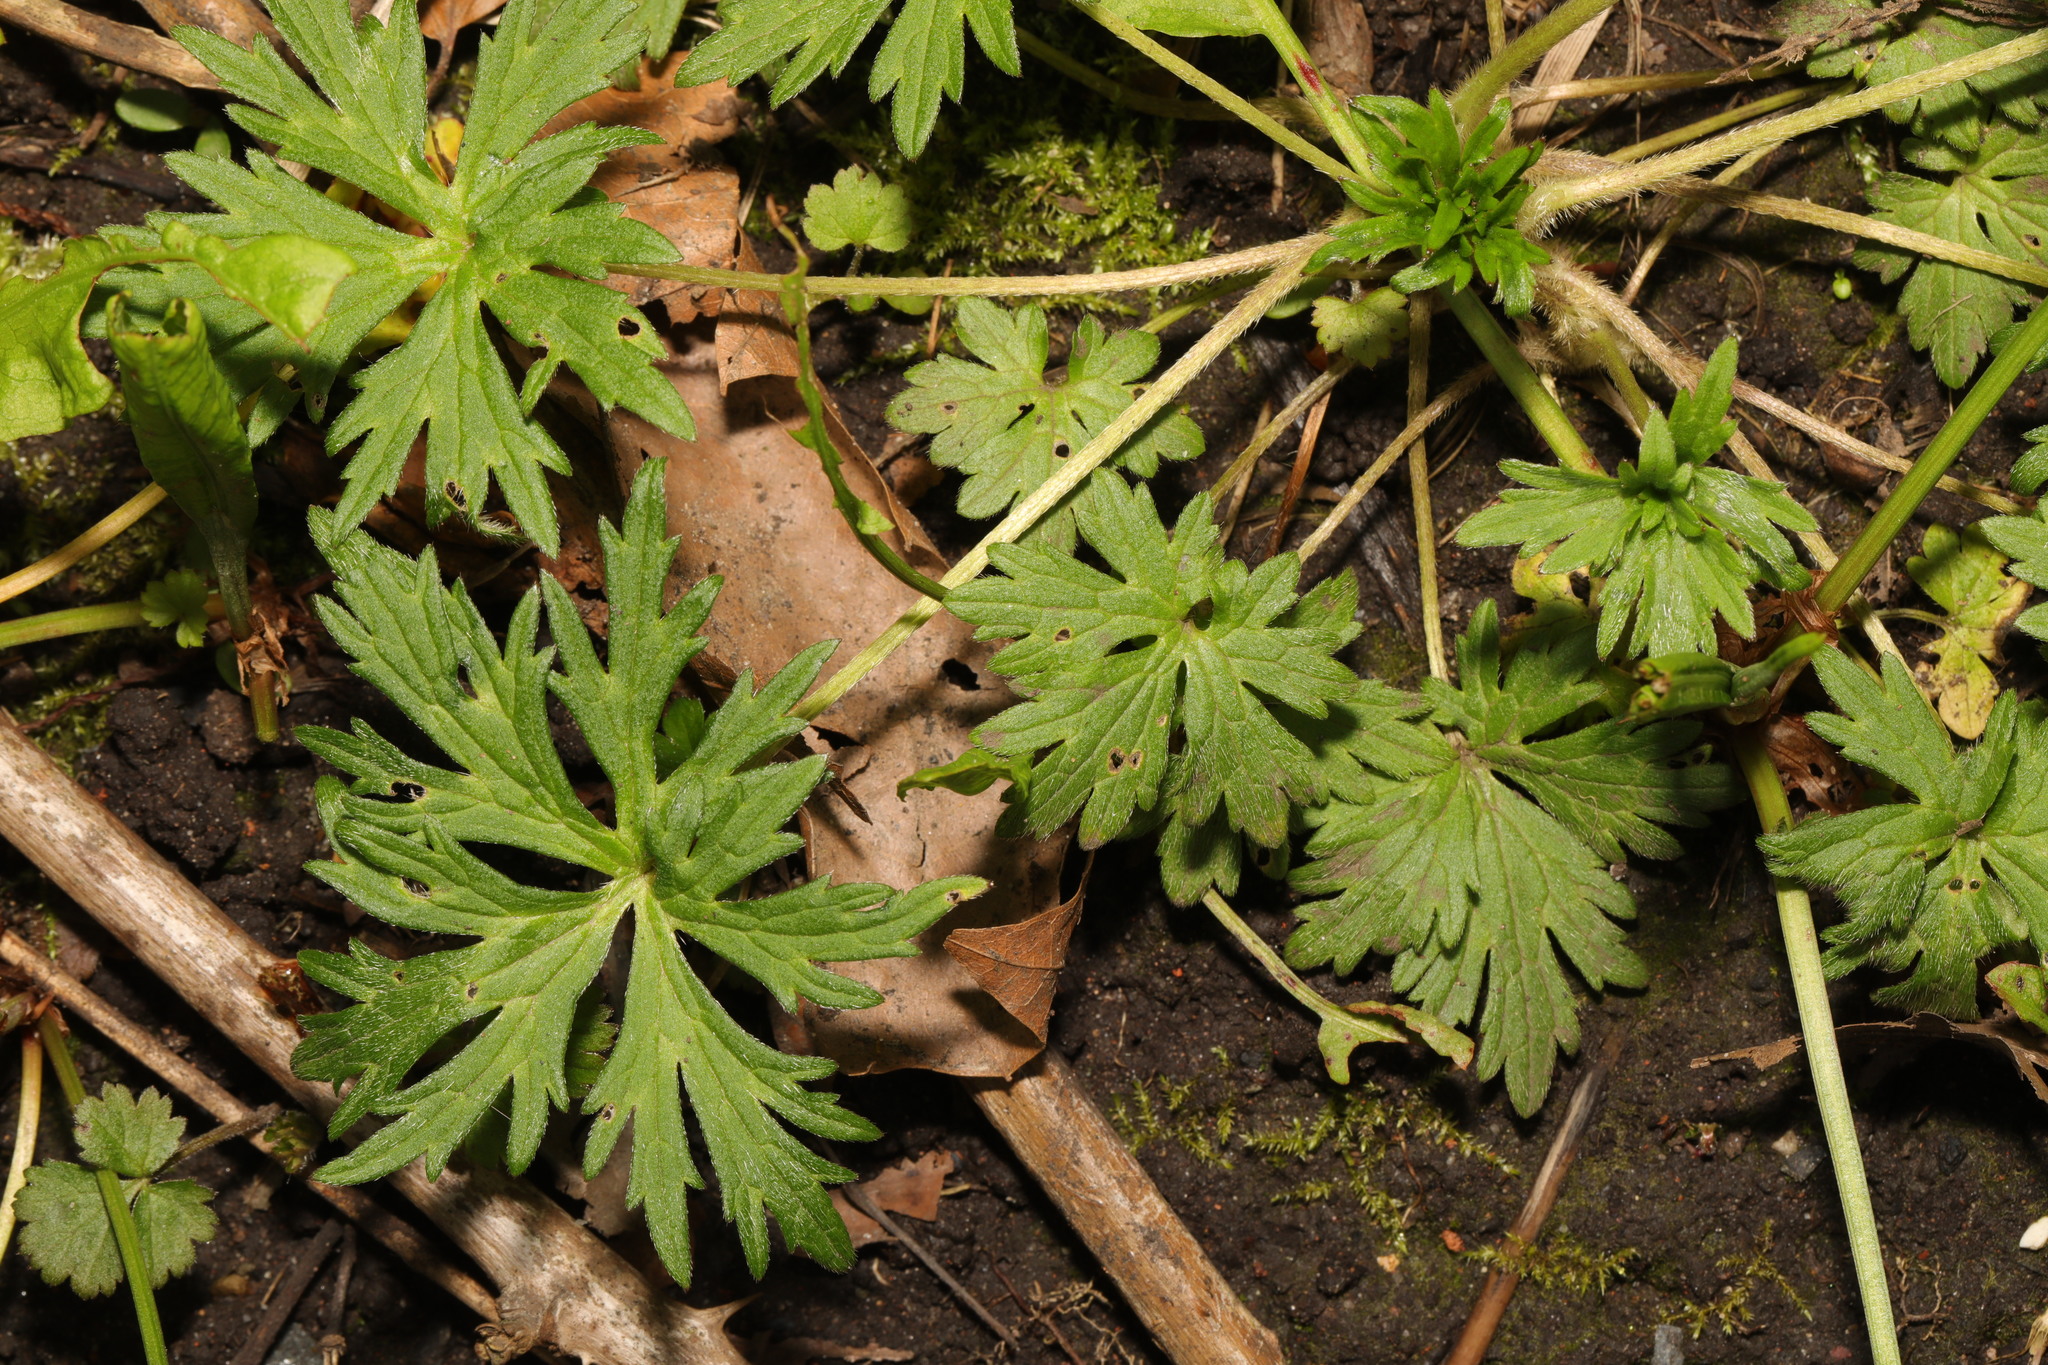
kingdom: Plantae
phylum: Tracheophyta
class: Magnoliopsida
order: Ranunculales
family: Ranunculaceae
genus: Ranunculus
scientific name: Ranunculus acris
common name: Meadow buttercup
